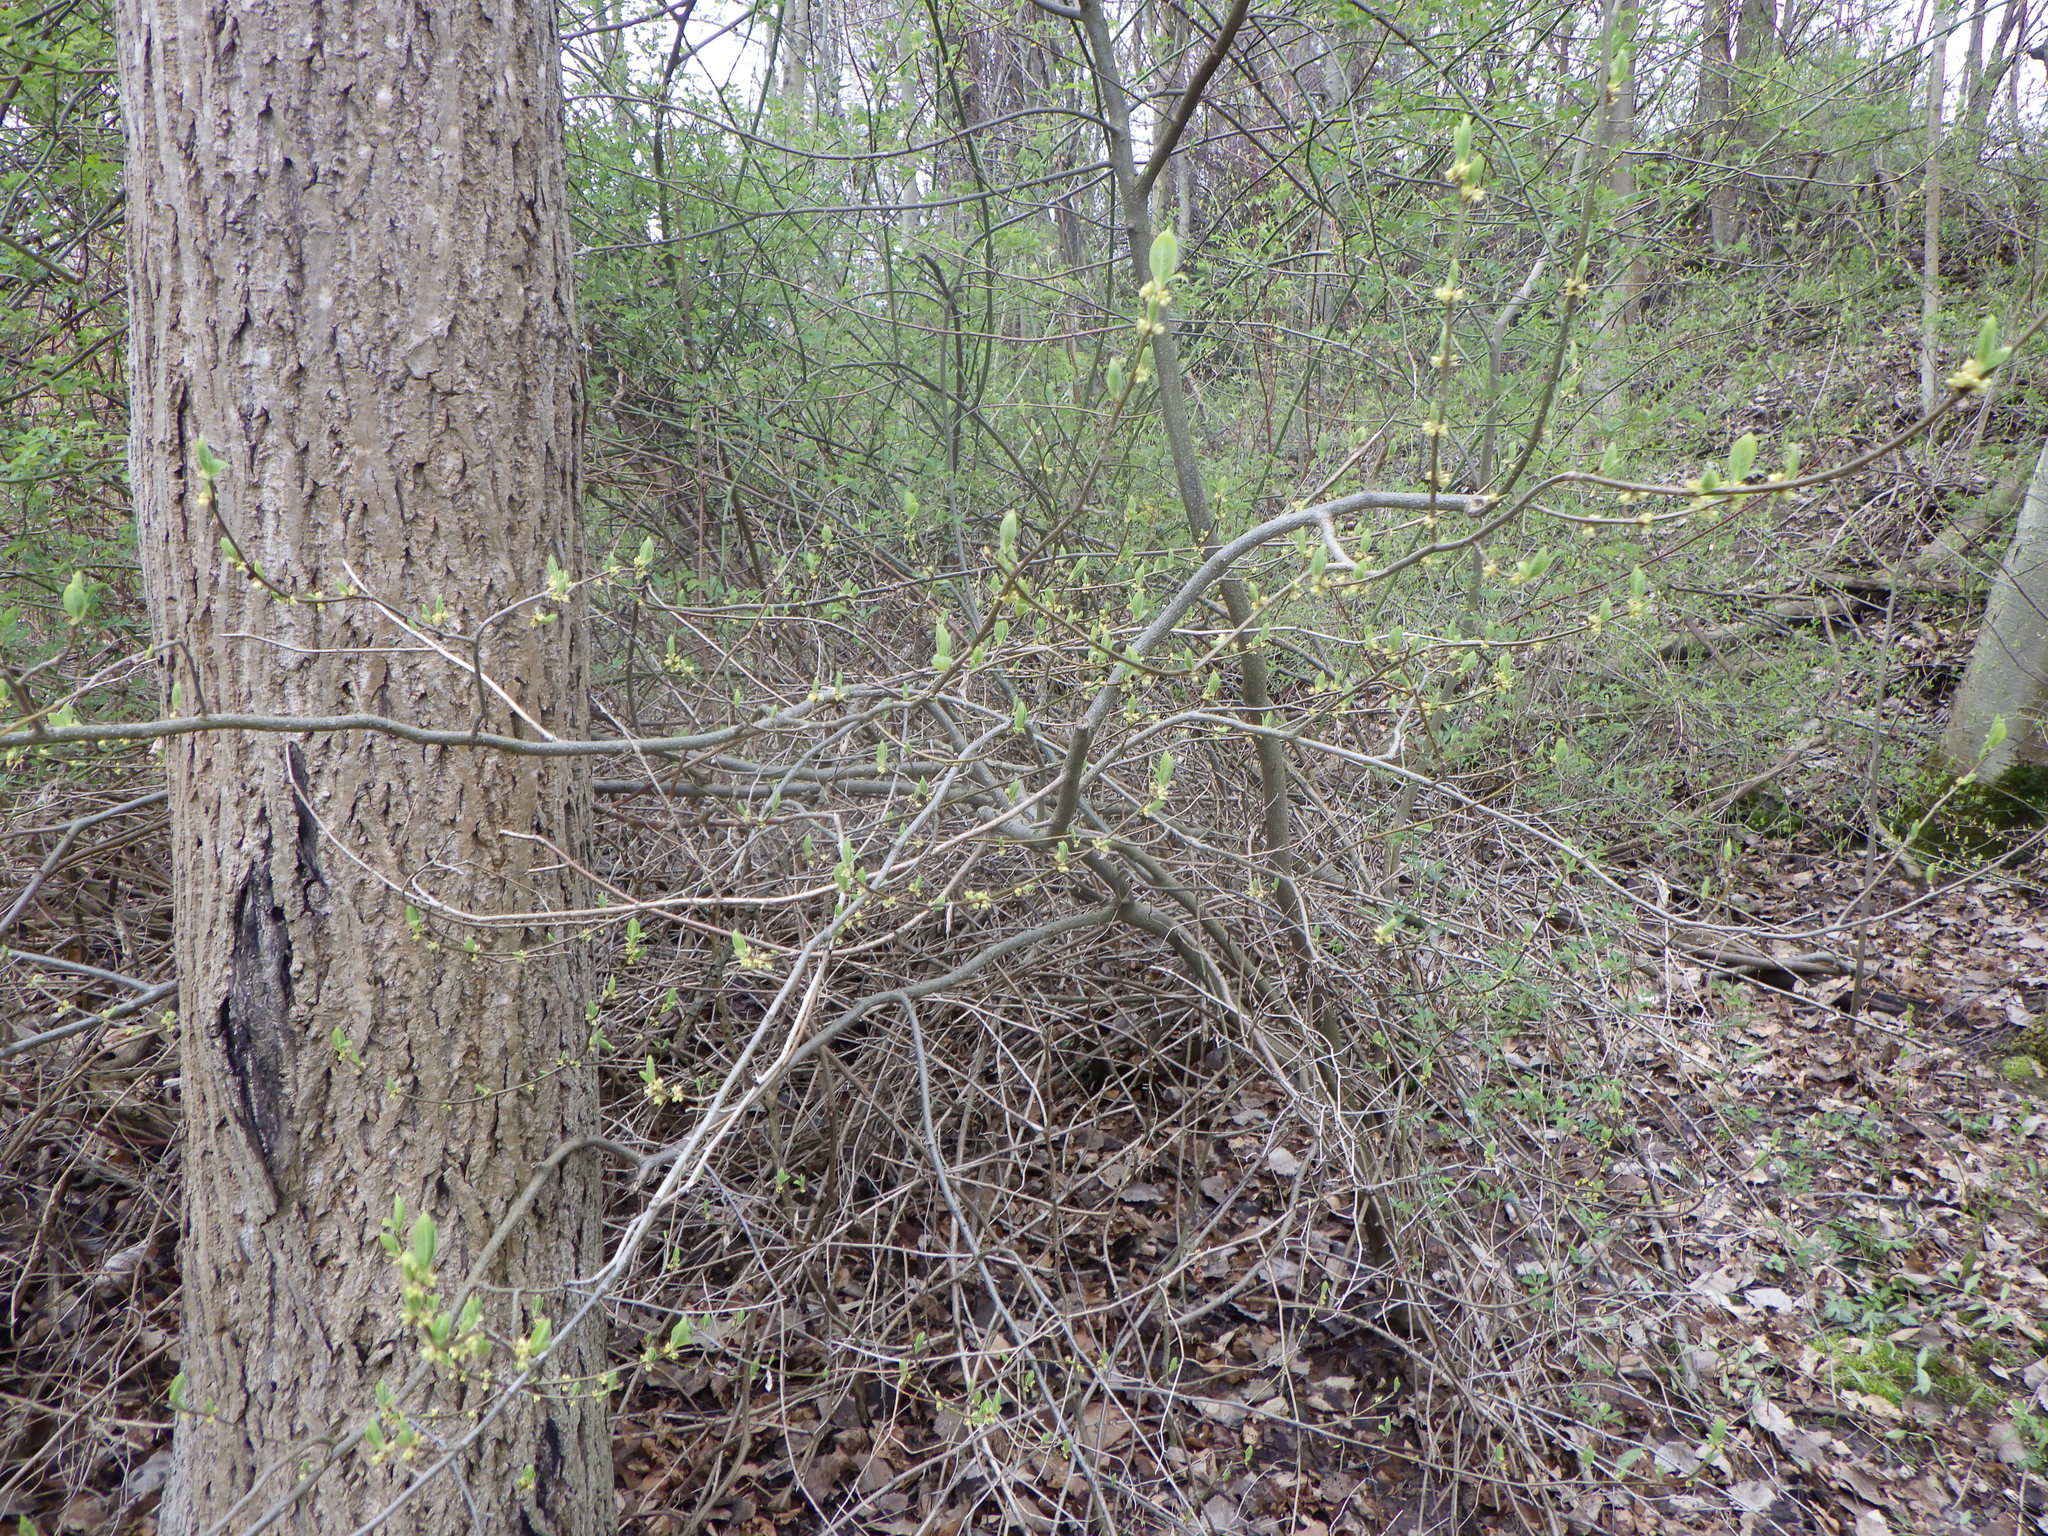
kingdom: Plantae
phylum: Tracheophyta
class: Magnoliopsida
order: Laurales
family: Lauraceae
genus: Lindera
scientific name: Lindera benzoin
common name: Spicebush
